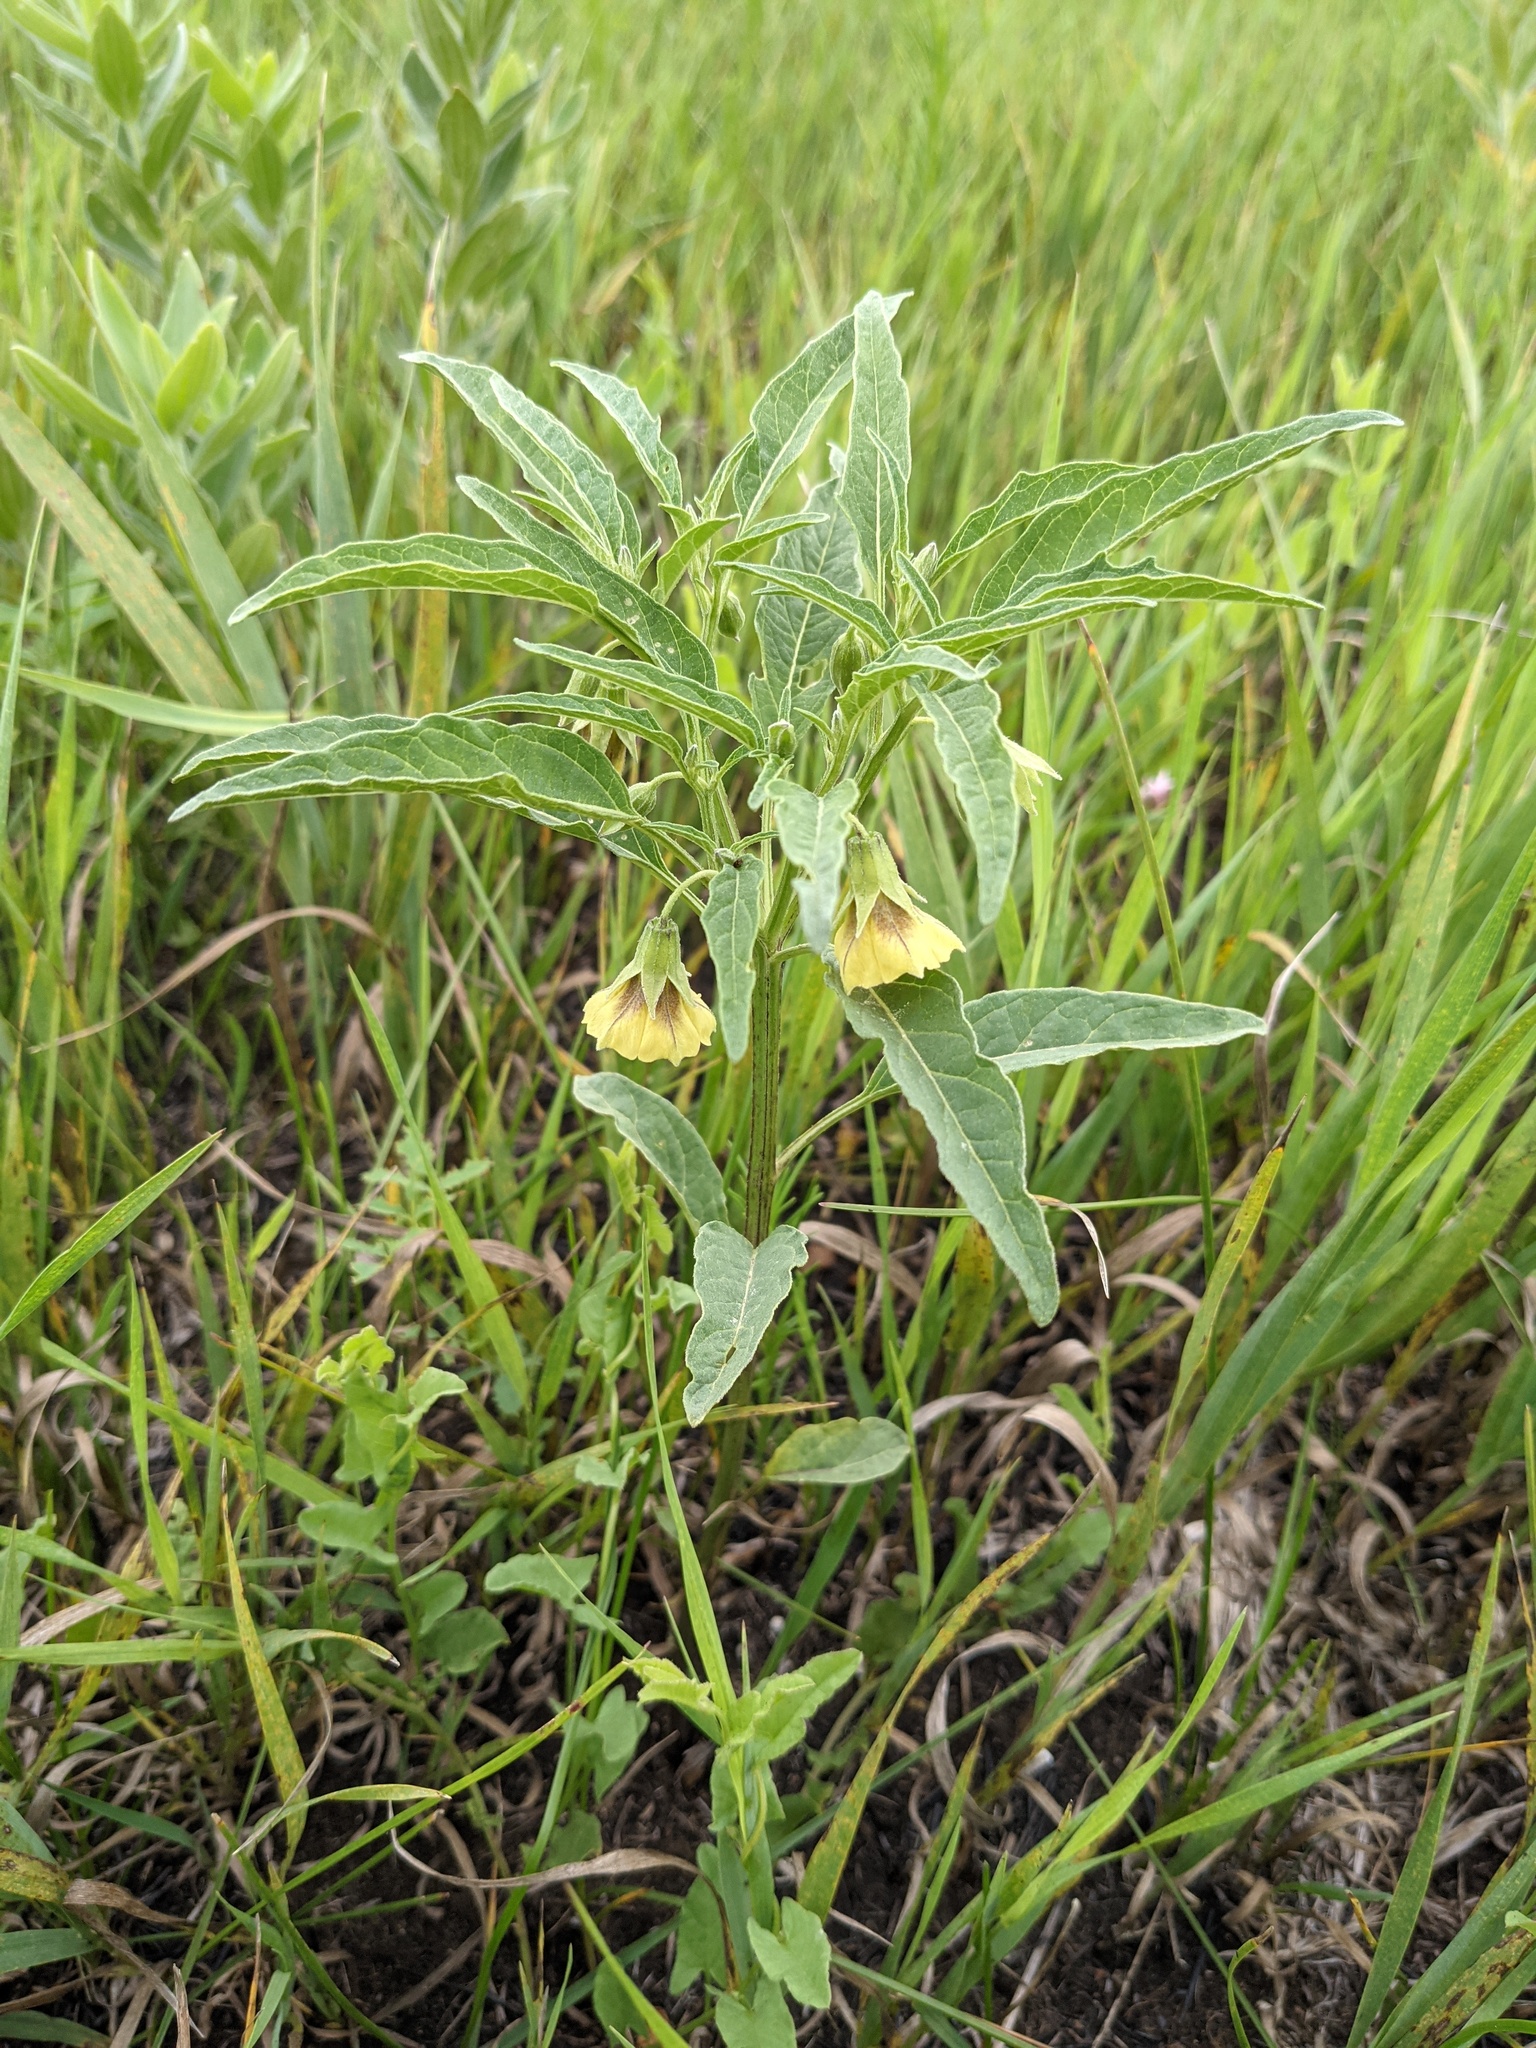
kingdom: Plantae
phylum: Tracheophyta
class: Magnoliopsida
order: Solanales
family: Solanaceae
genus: Physalis
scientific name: Physalis longifolia
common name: Common ground-cherry
